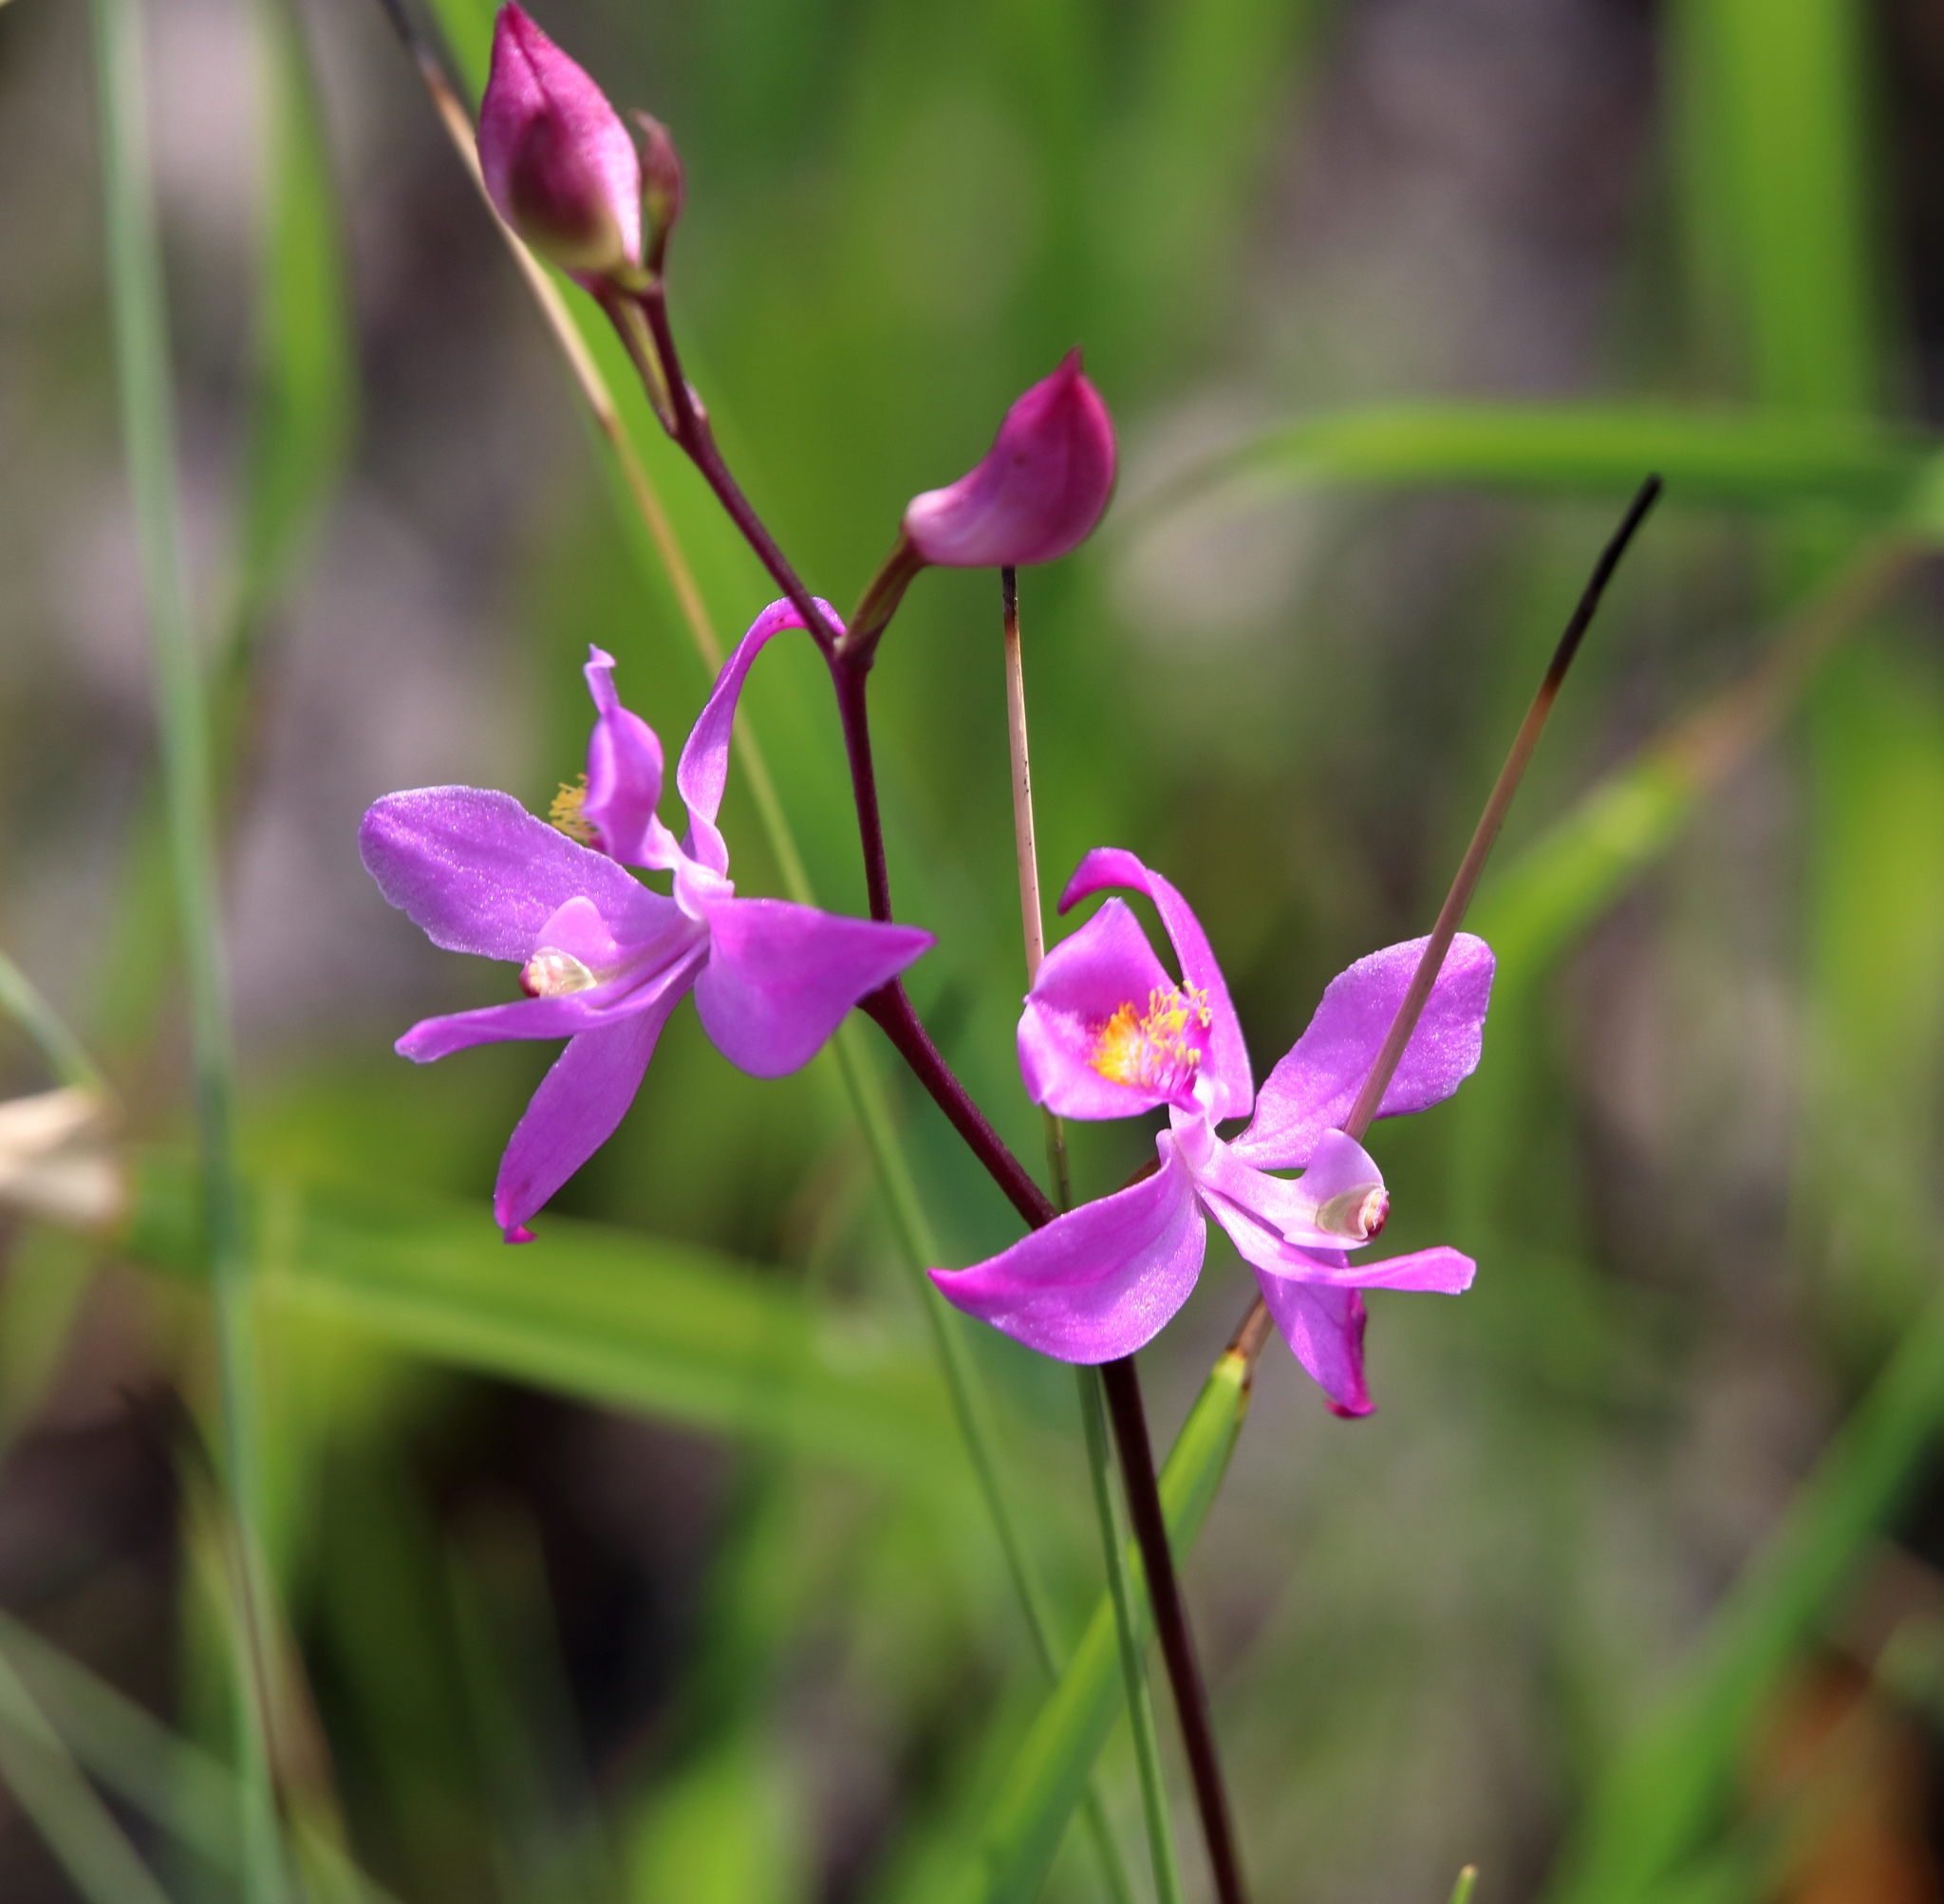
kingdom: Plantae
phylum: Tracheophyta
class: Liliopsida
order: Asparagales
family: Orchidaceae
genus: Calopogon
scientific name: Calopogon multiflorus
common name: Many-flowered grass-pink orchid
